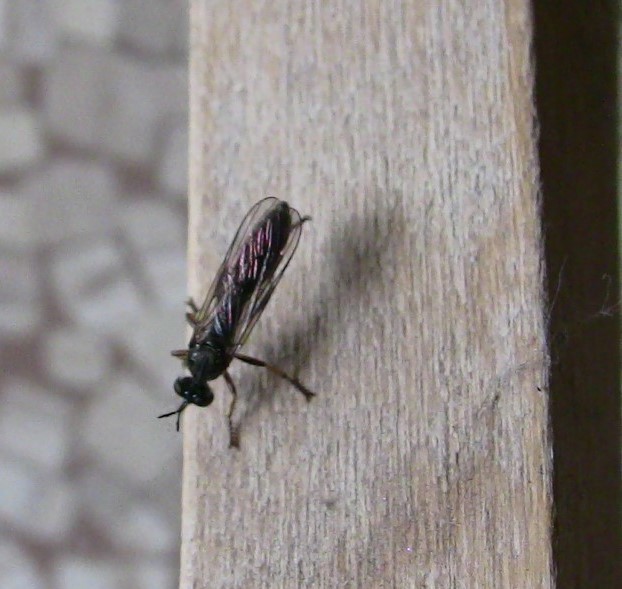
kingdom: Animalia
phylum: Arthropoda
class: Insecta
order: Diptera
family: Asilidae
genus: Dioctria
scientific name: Dioctria hyalipennis
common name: Stripe-legged robberfly
